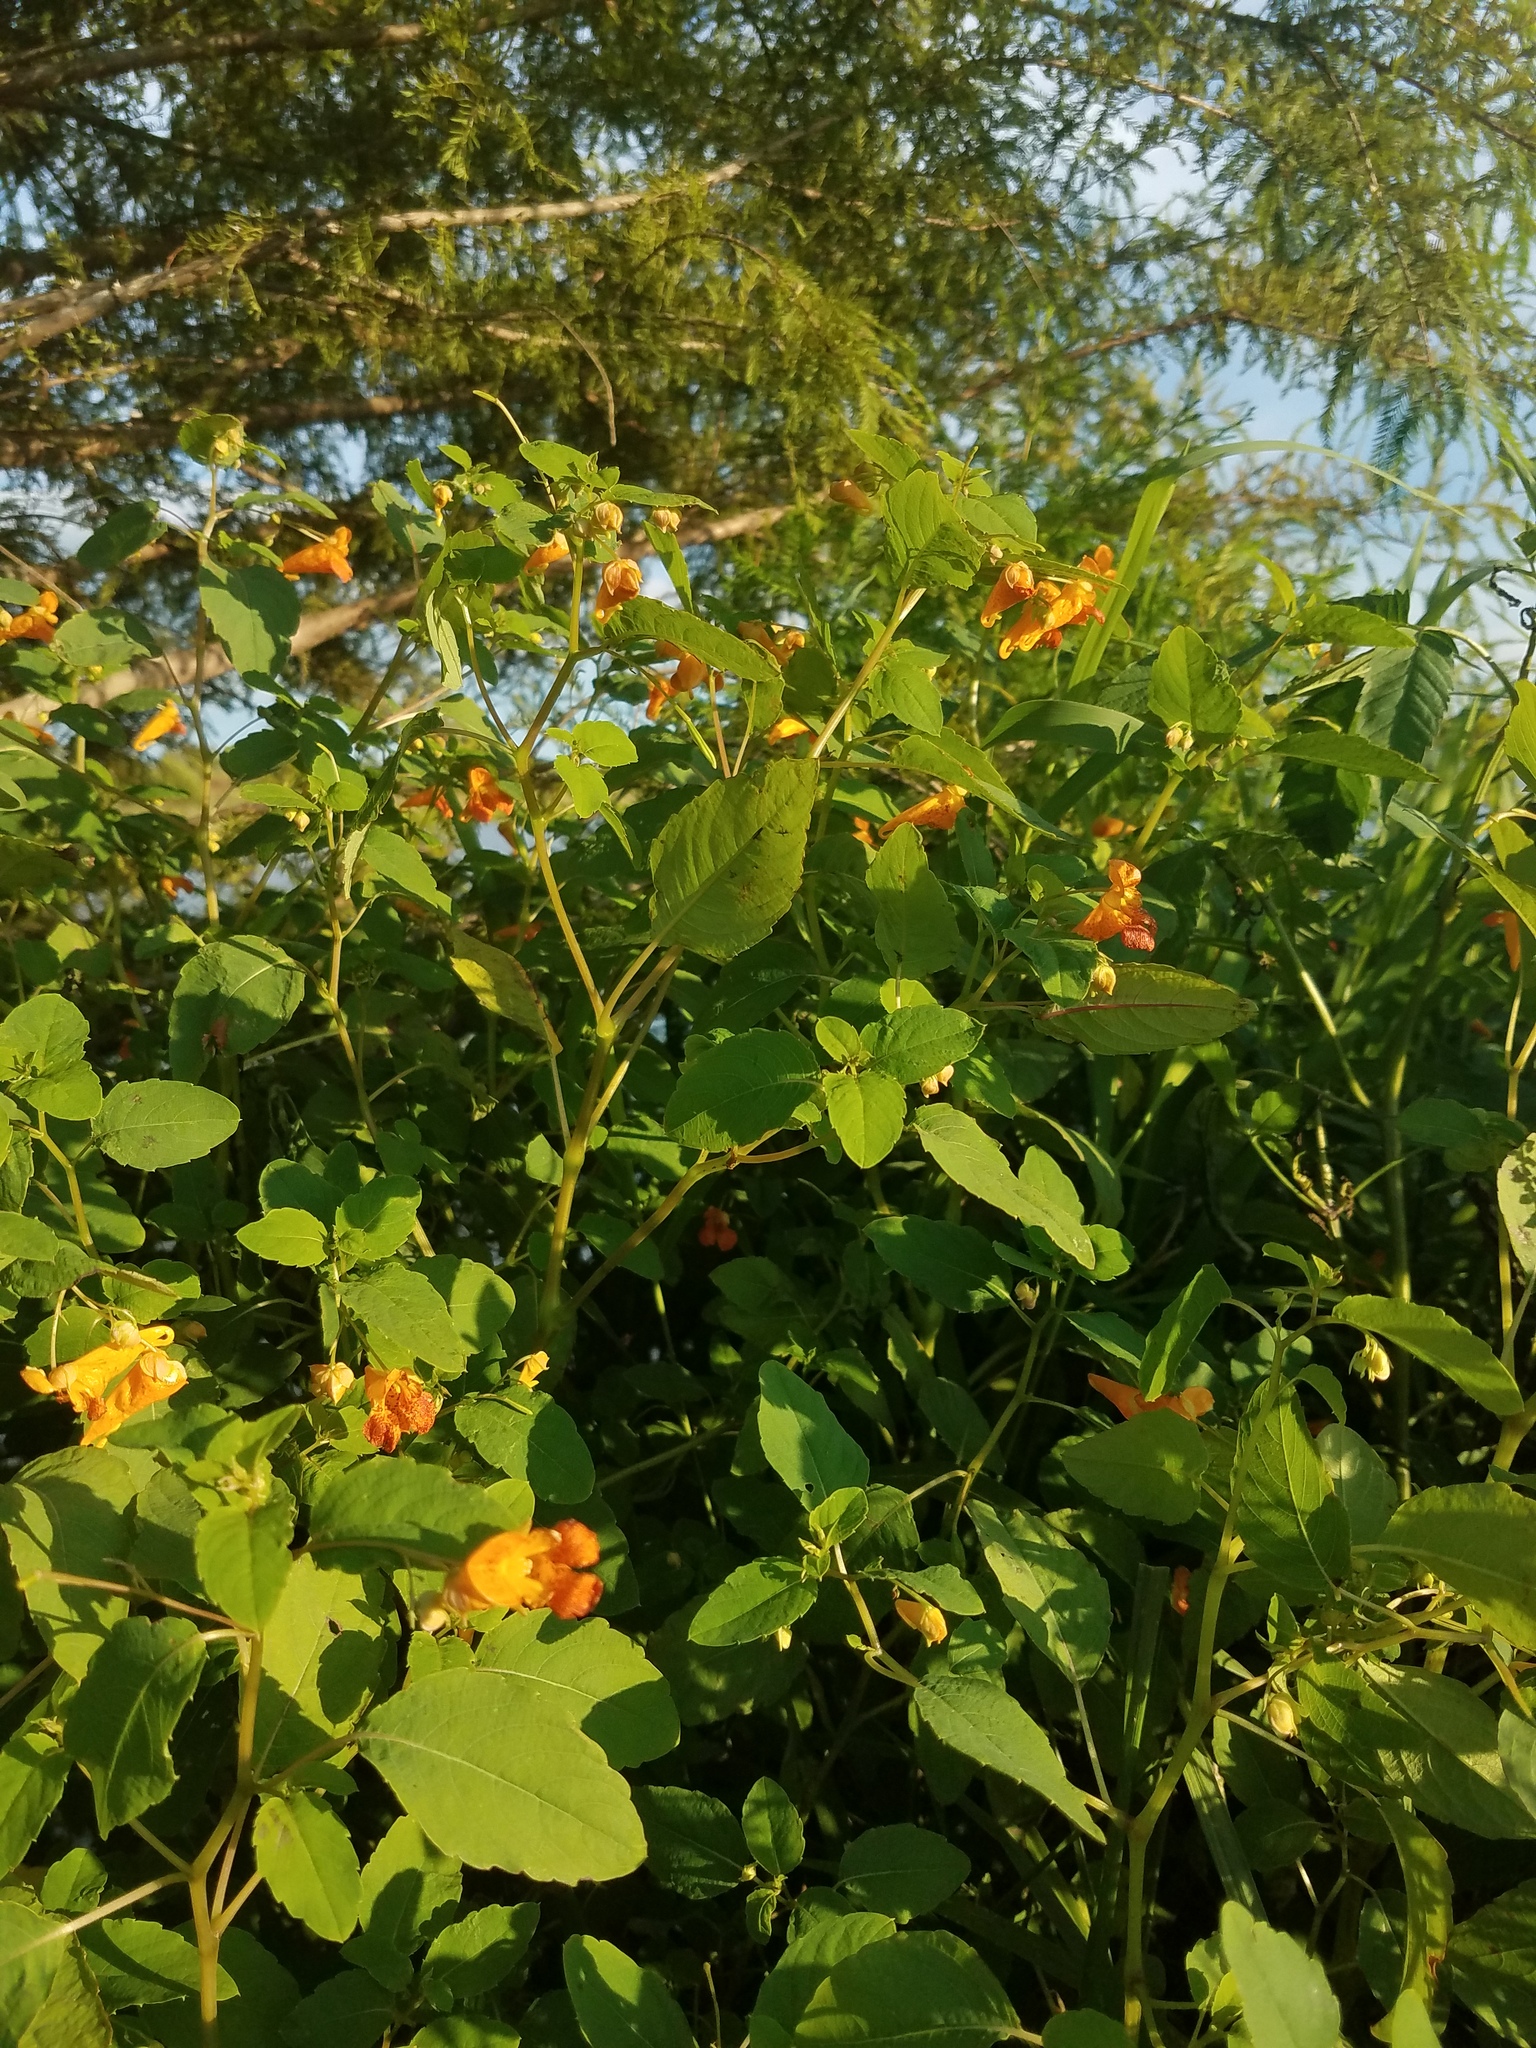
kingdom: Plantae
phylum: Tracheophyta
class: Magnoliopsida
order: Ericales
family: Balsaminaceae
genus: Impatiens
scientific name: Impatiens capensis
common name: Orange balsam
